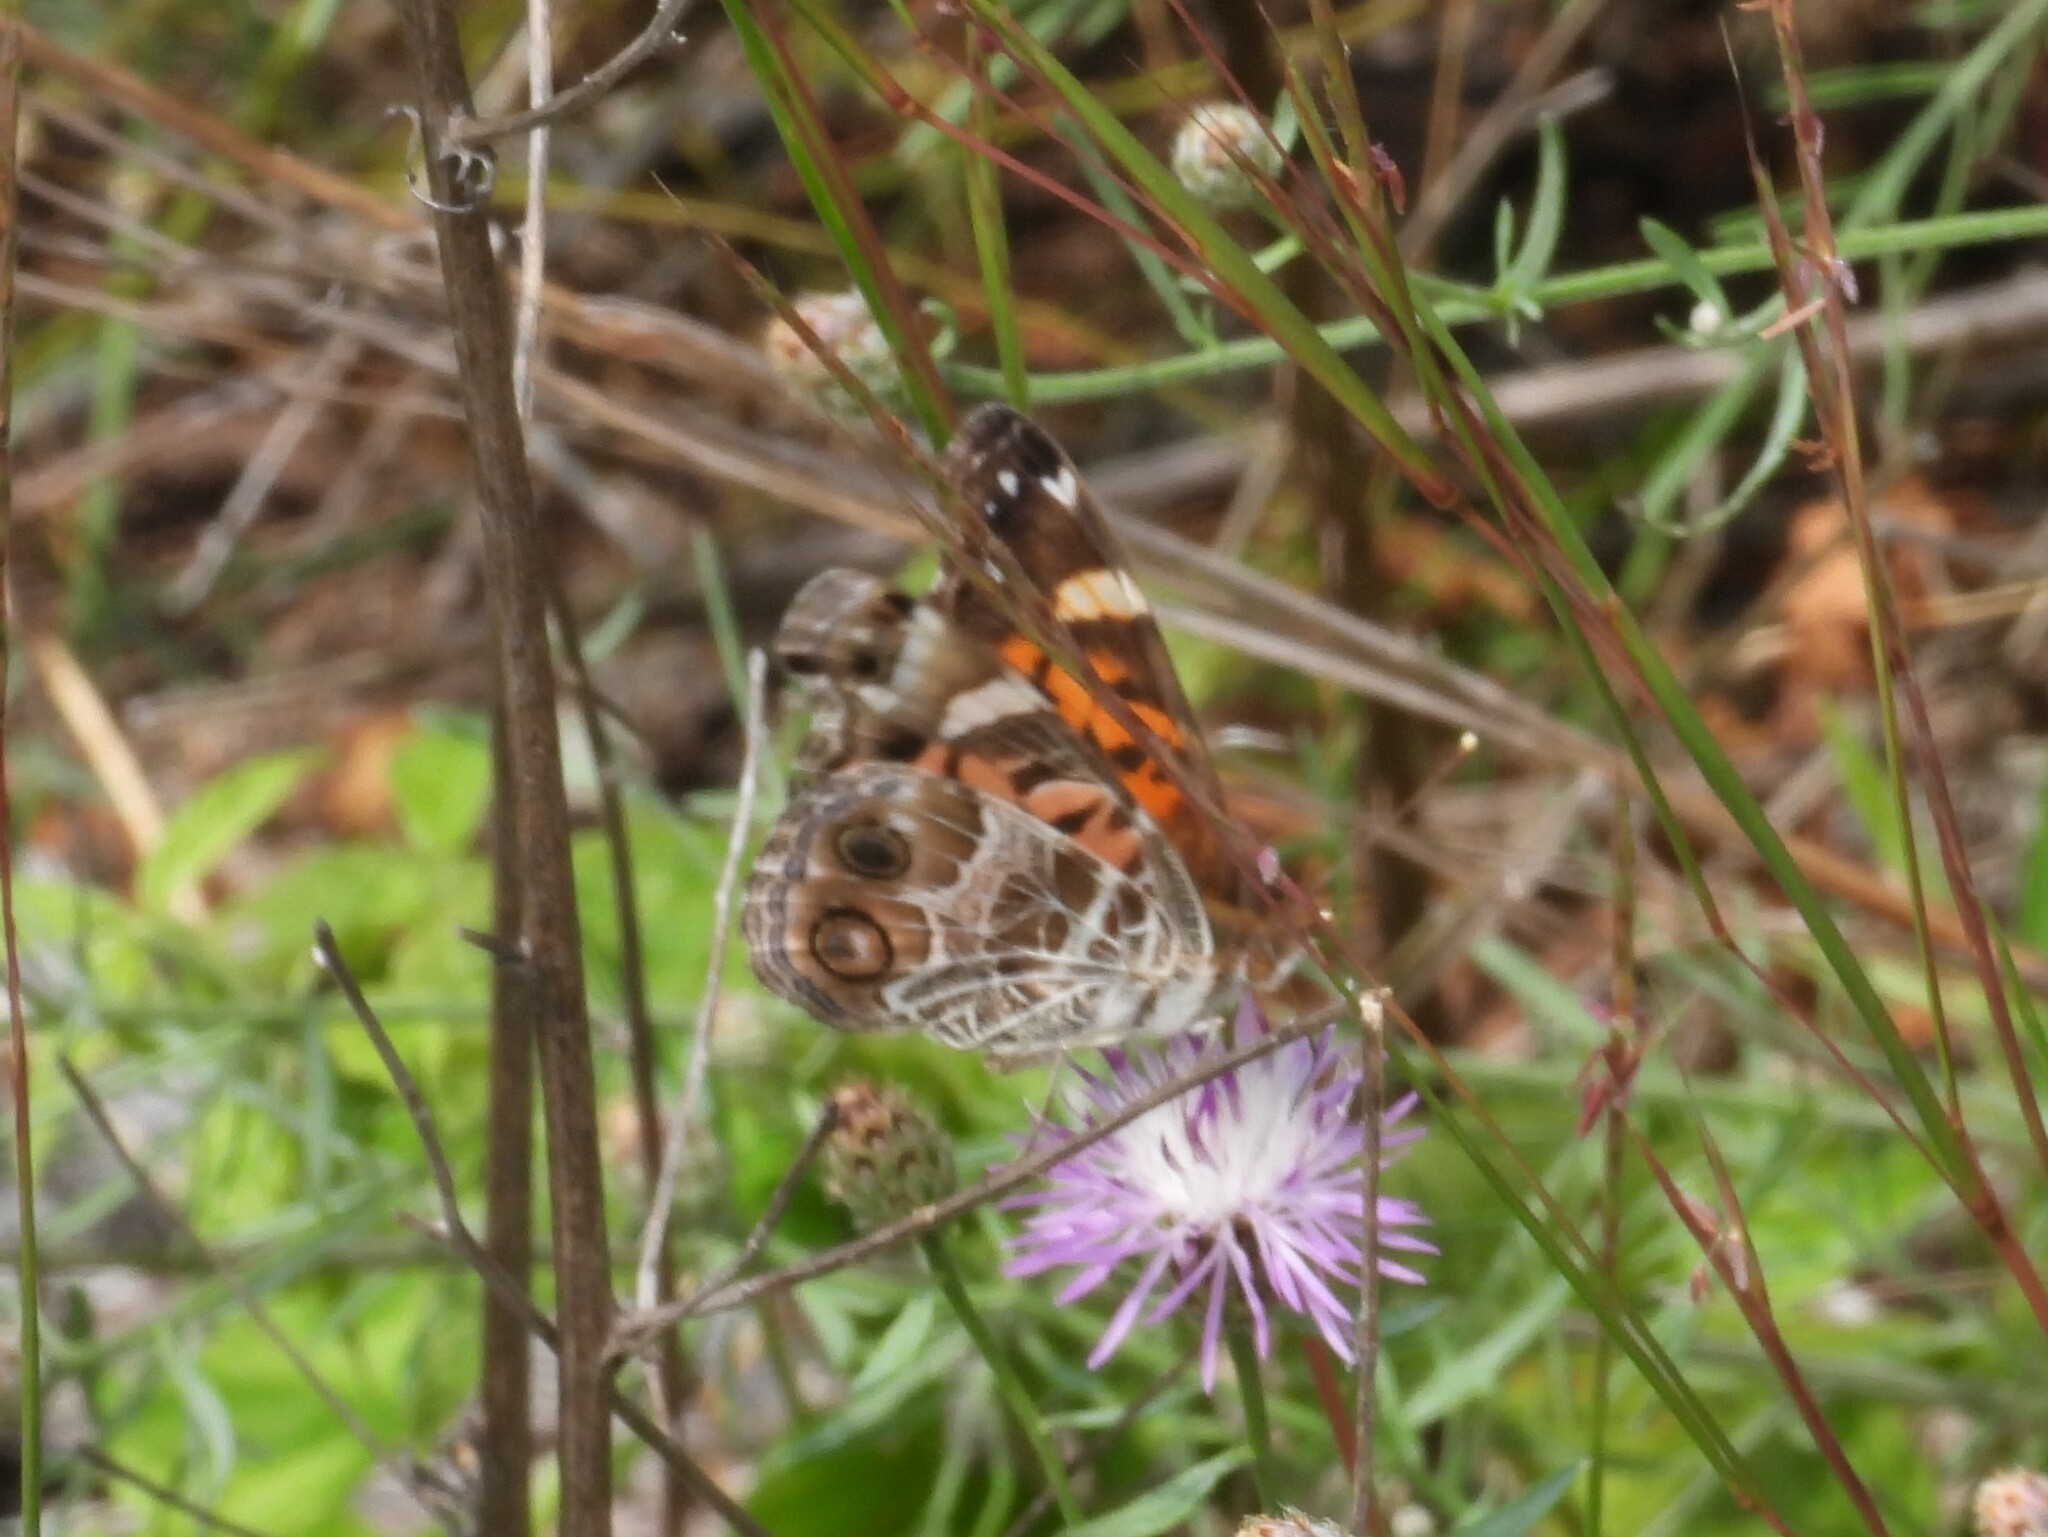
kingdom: Animalia
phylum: Arthropoda
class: Insecta
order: Lepidoptera
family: Nymphalidae
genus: Vanessa
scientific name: Vanessa virginiensis
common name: American lady
